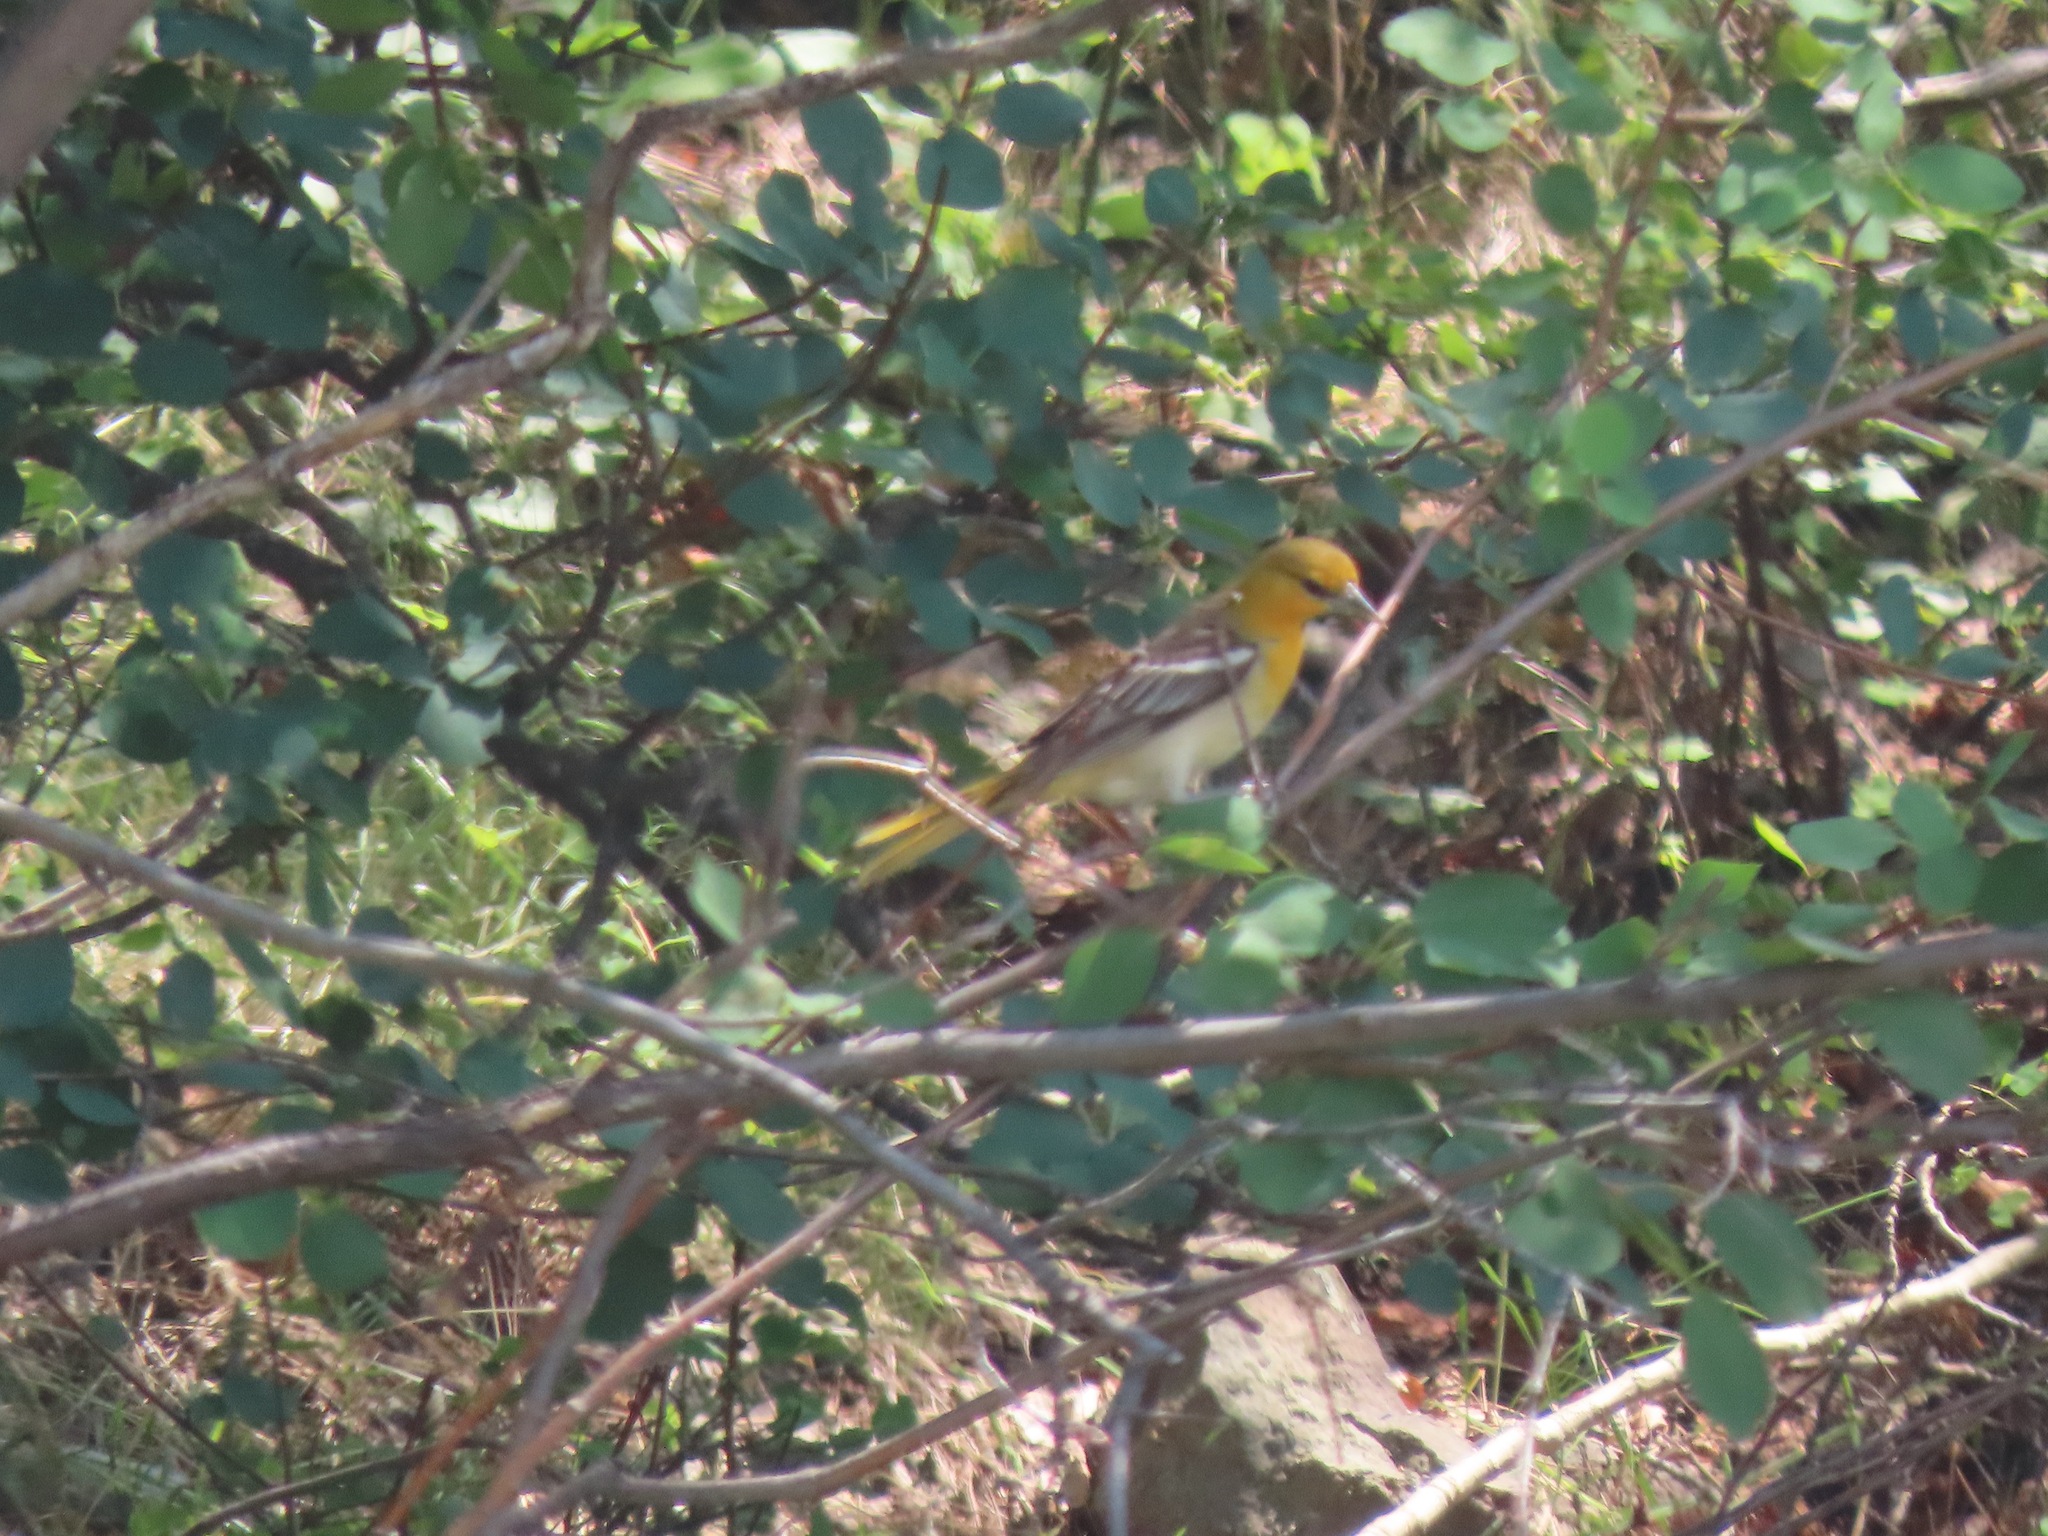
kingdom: Animalia
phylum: Chordata
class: Aves
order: Passeriformes
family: Icteridae
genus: Icterus
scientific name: Icterus bullockii
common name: Bullock's oriole
